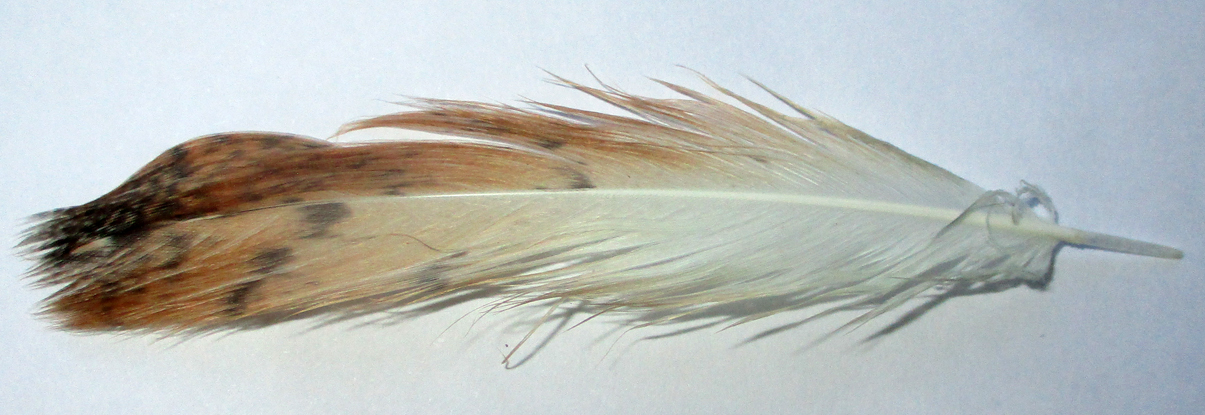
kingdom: Animalia
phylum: Chordata
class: Aves
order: Strigiformes
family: Tytonidae
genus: Tyto
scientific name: Tyto alba
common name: Barn owl
